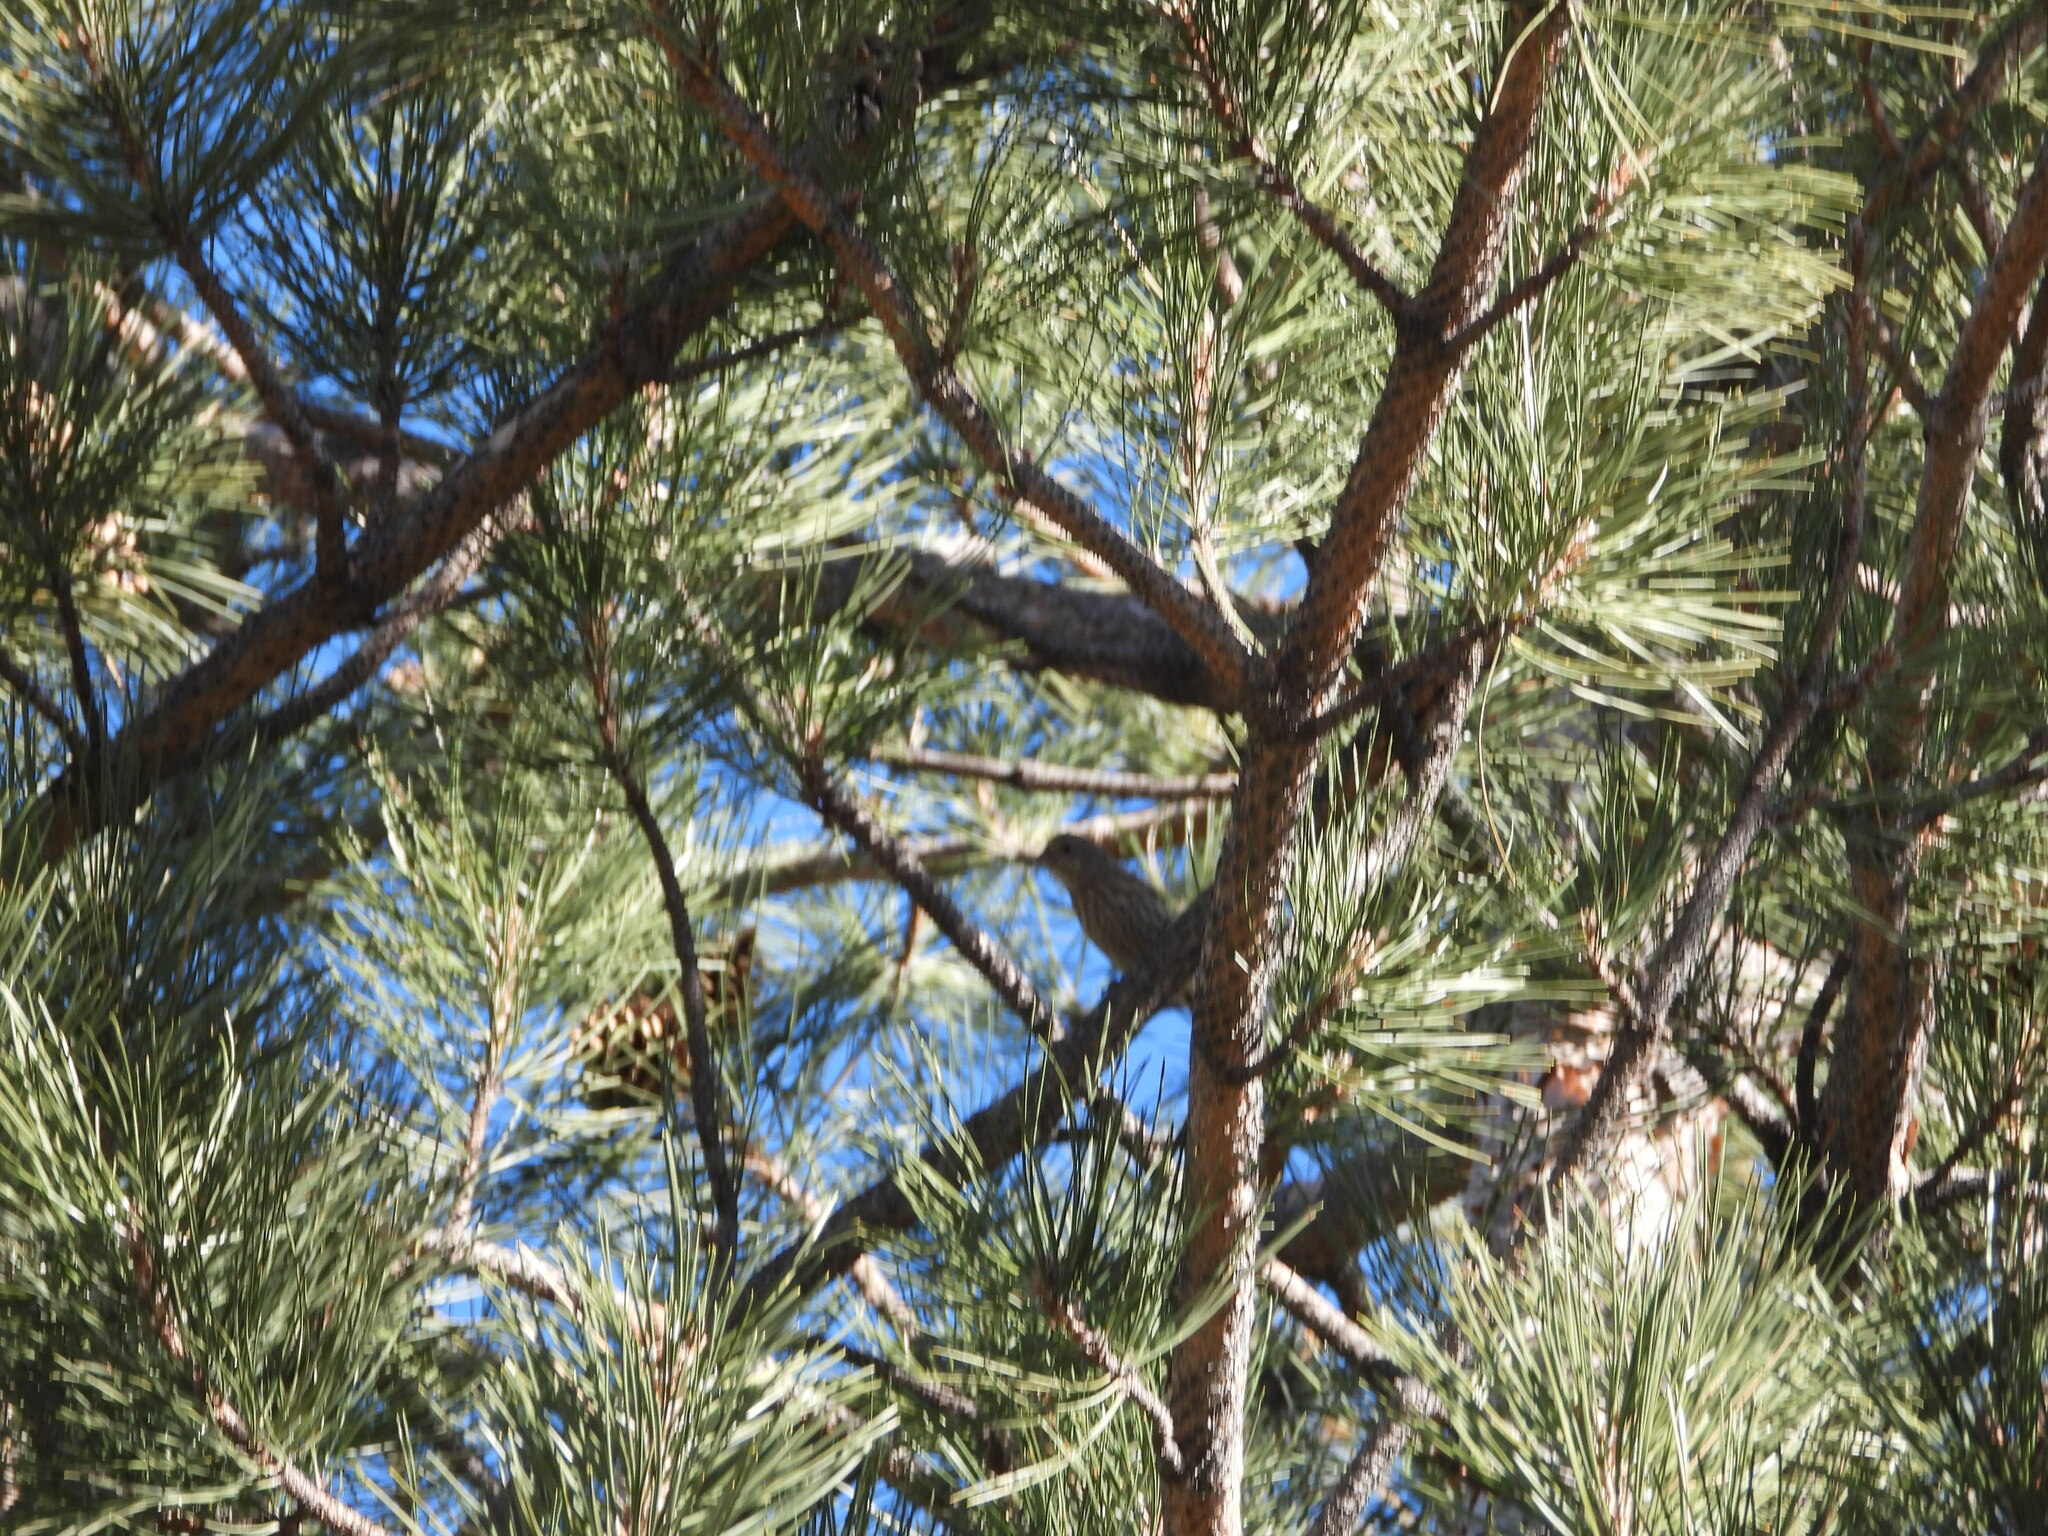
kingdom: Animalia
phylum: Chordata
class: Aves
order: Passeriformes
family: Fringillidae
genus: Haemorhous
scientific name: Haemorhous mexicanus
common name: House finch
